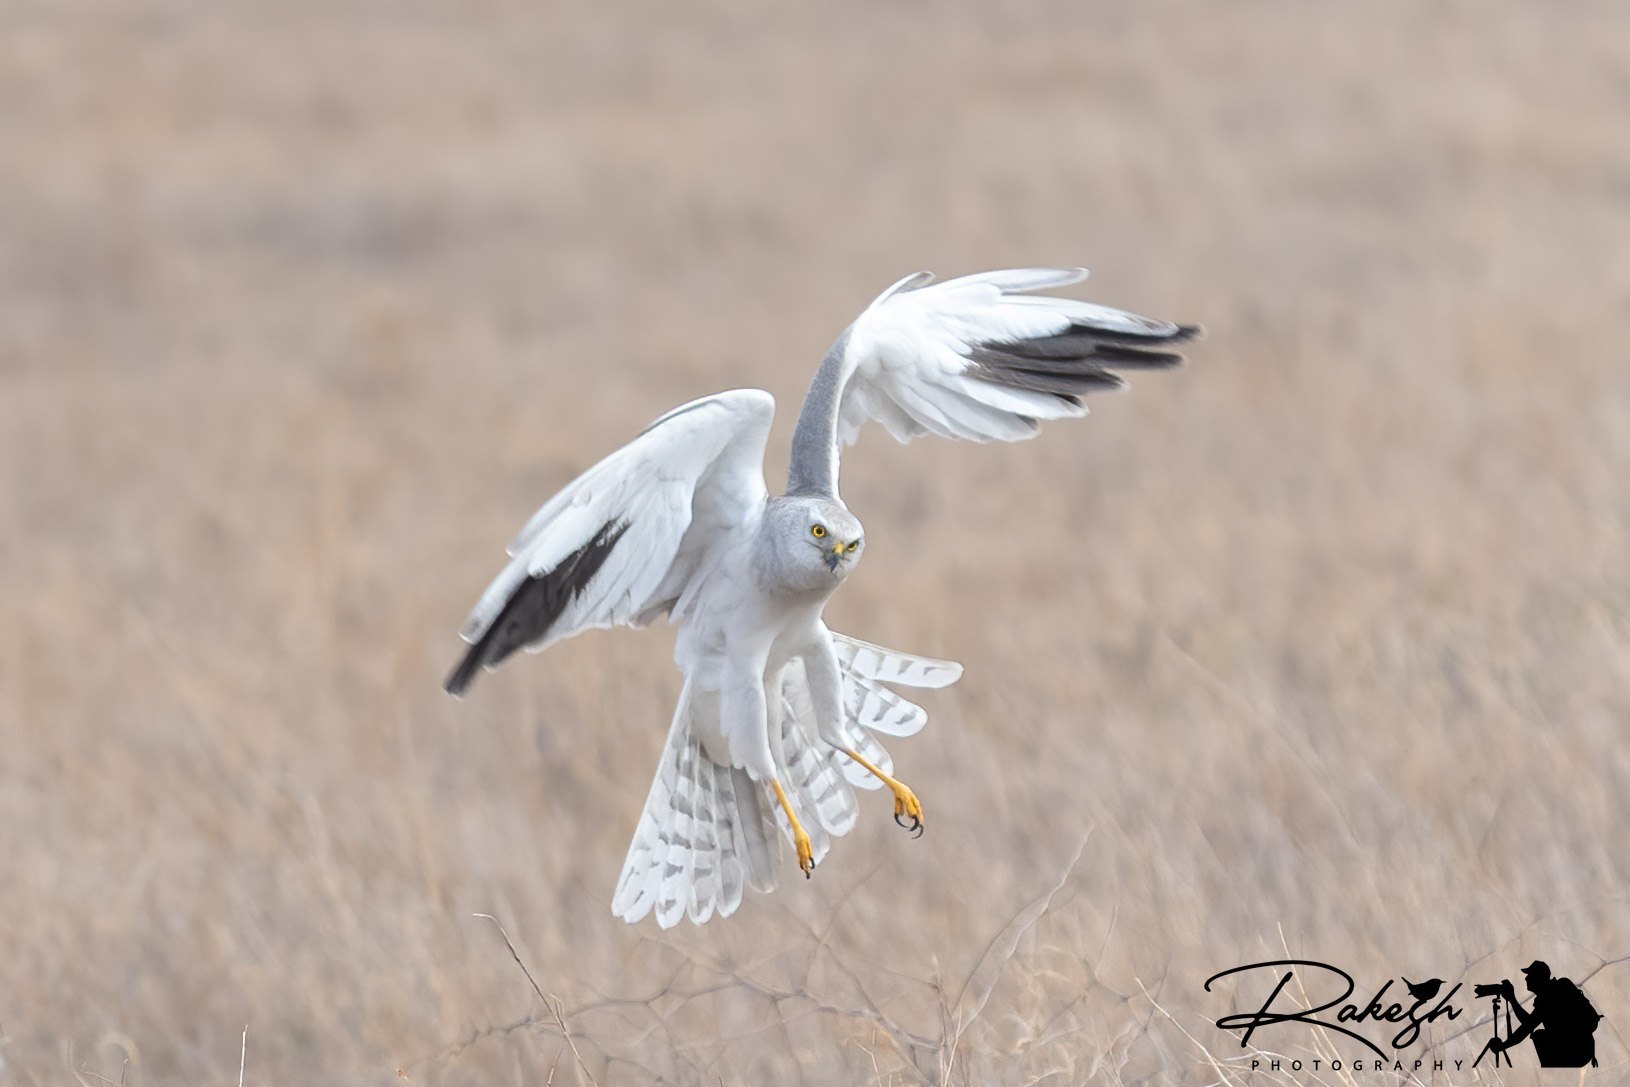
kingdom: Animalia
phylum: Chordata
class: Aves
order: Accipitriformes
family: Accipitridae
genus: Circus
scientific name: Circus macrourus
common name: Pallid harrier
